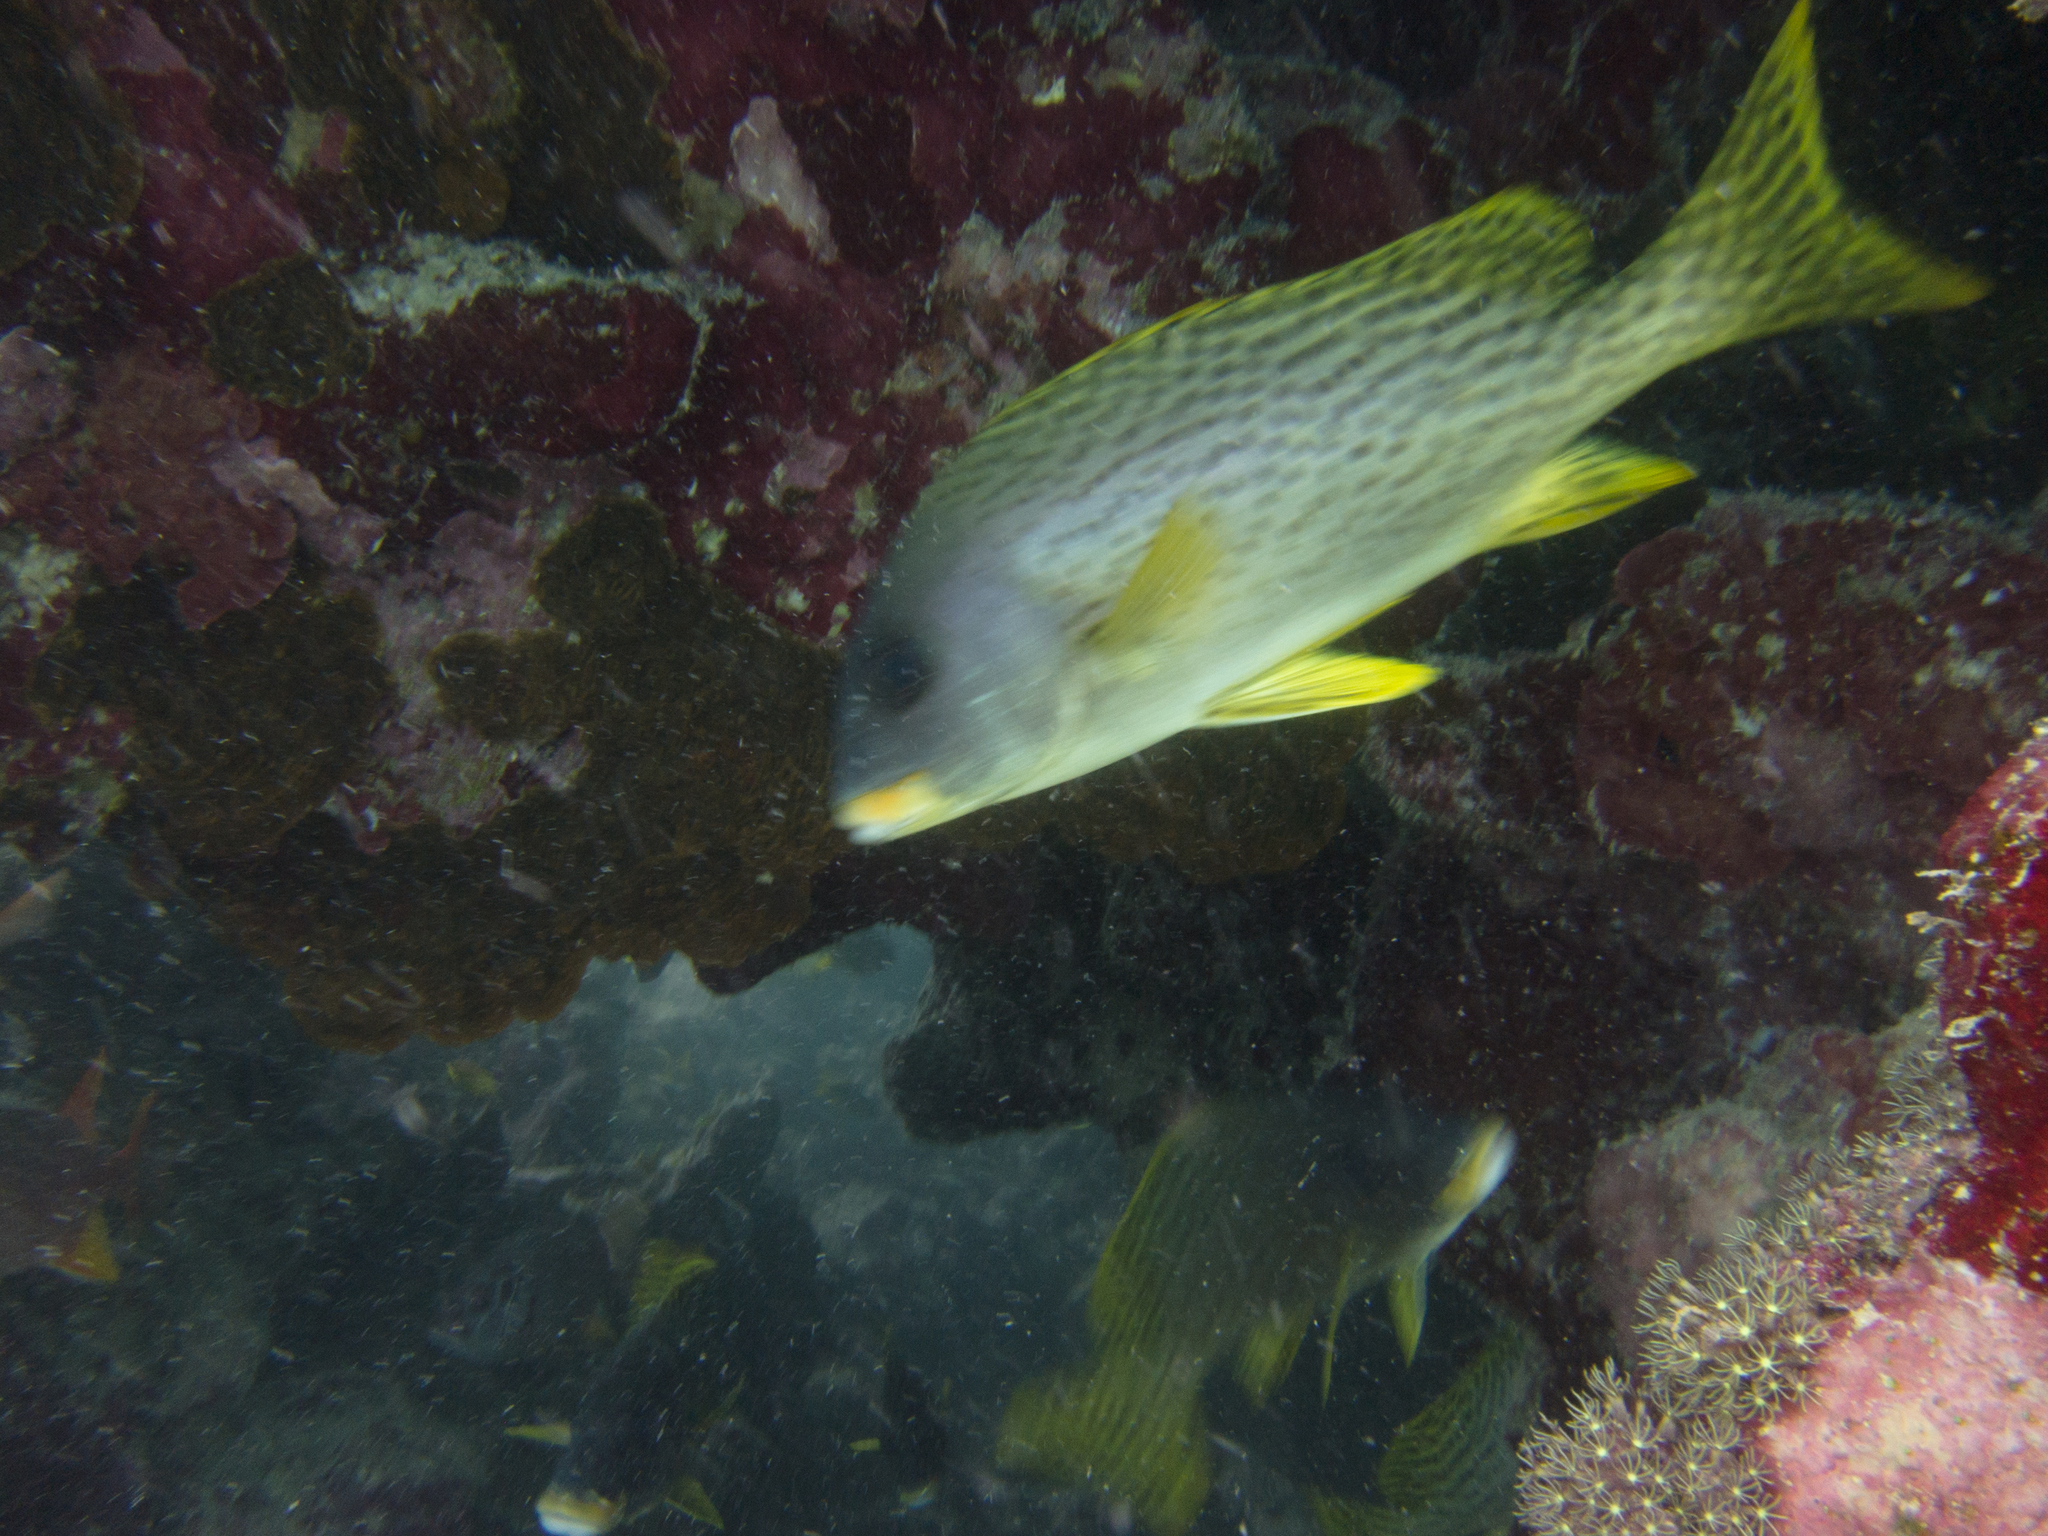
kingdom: Animalia
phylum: Chordata
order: Beryciformes
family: Holocentridae
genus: Sargocentron
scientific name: Sargocentron spiniferum
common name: Giant squirrelfish
